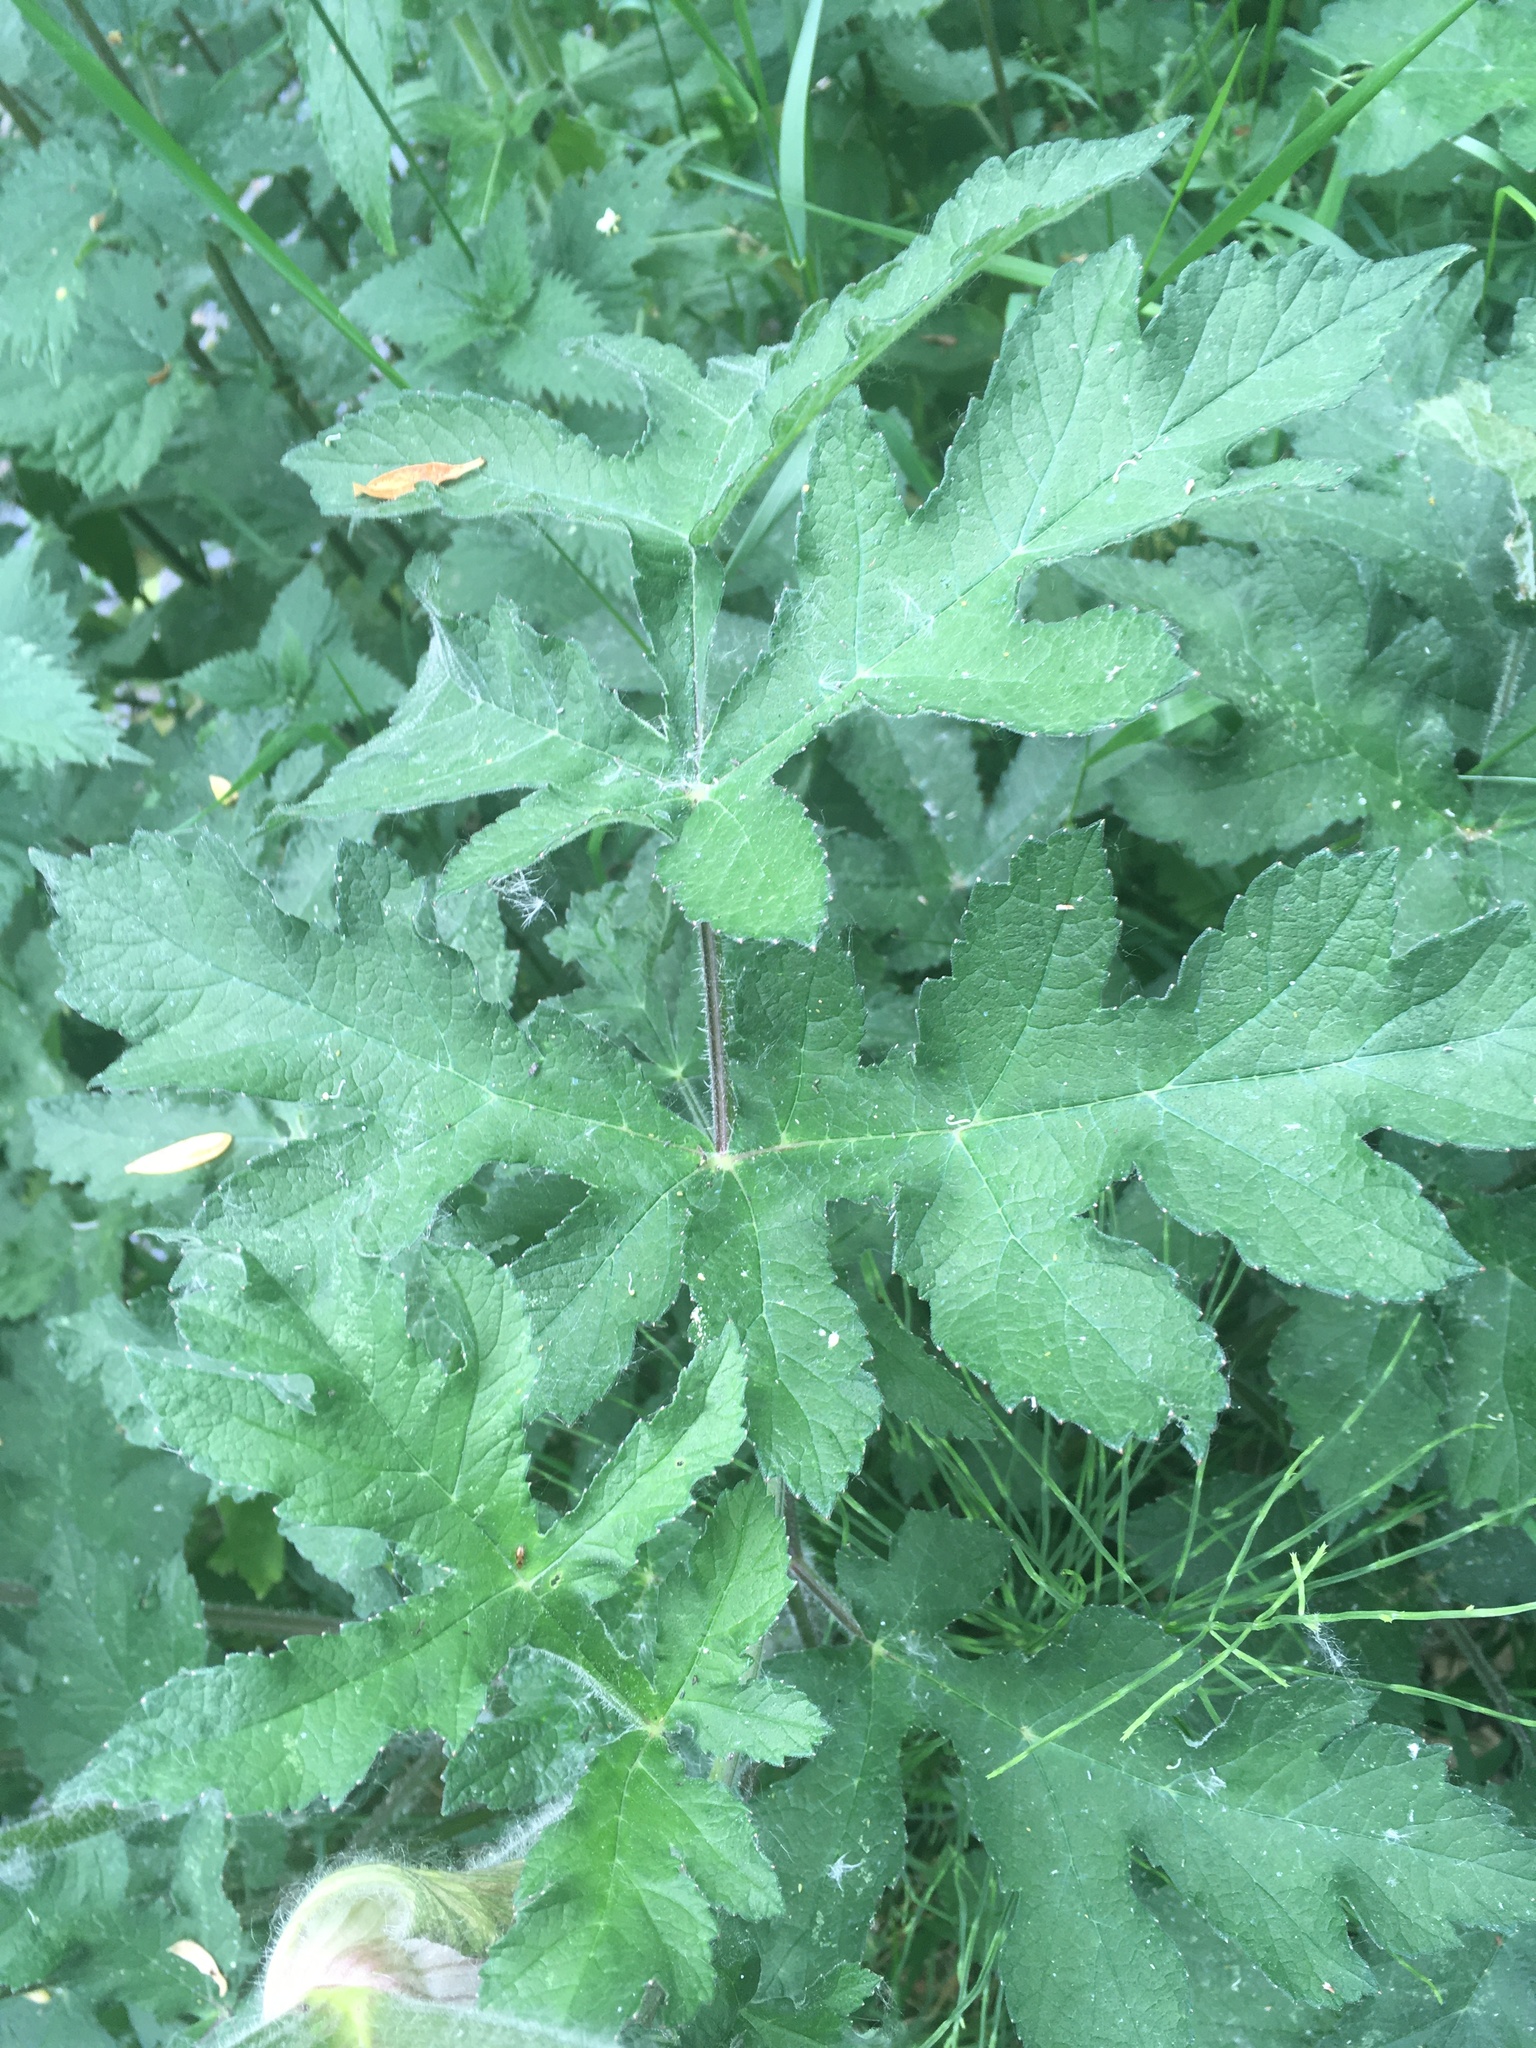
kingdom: Plantae
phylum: Tracheophyta
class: Magnoliopsida
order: Apiales
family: Apiaceae
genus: Heracleum
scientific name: Heracleum sphondylium
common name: Hogweed
